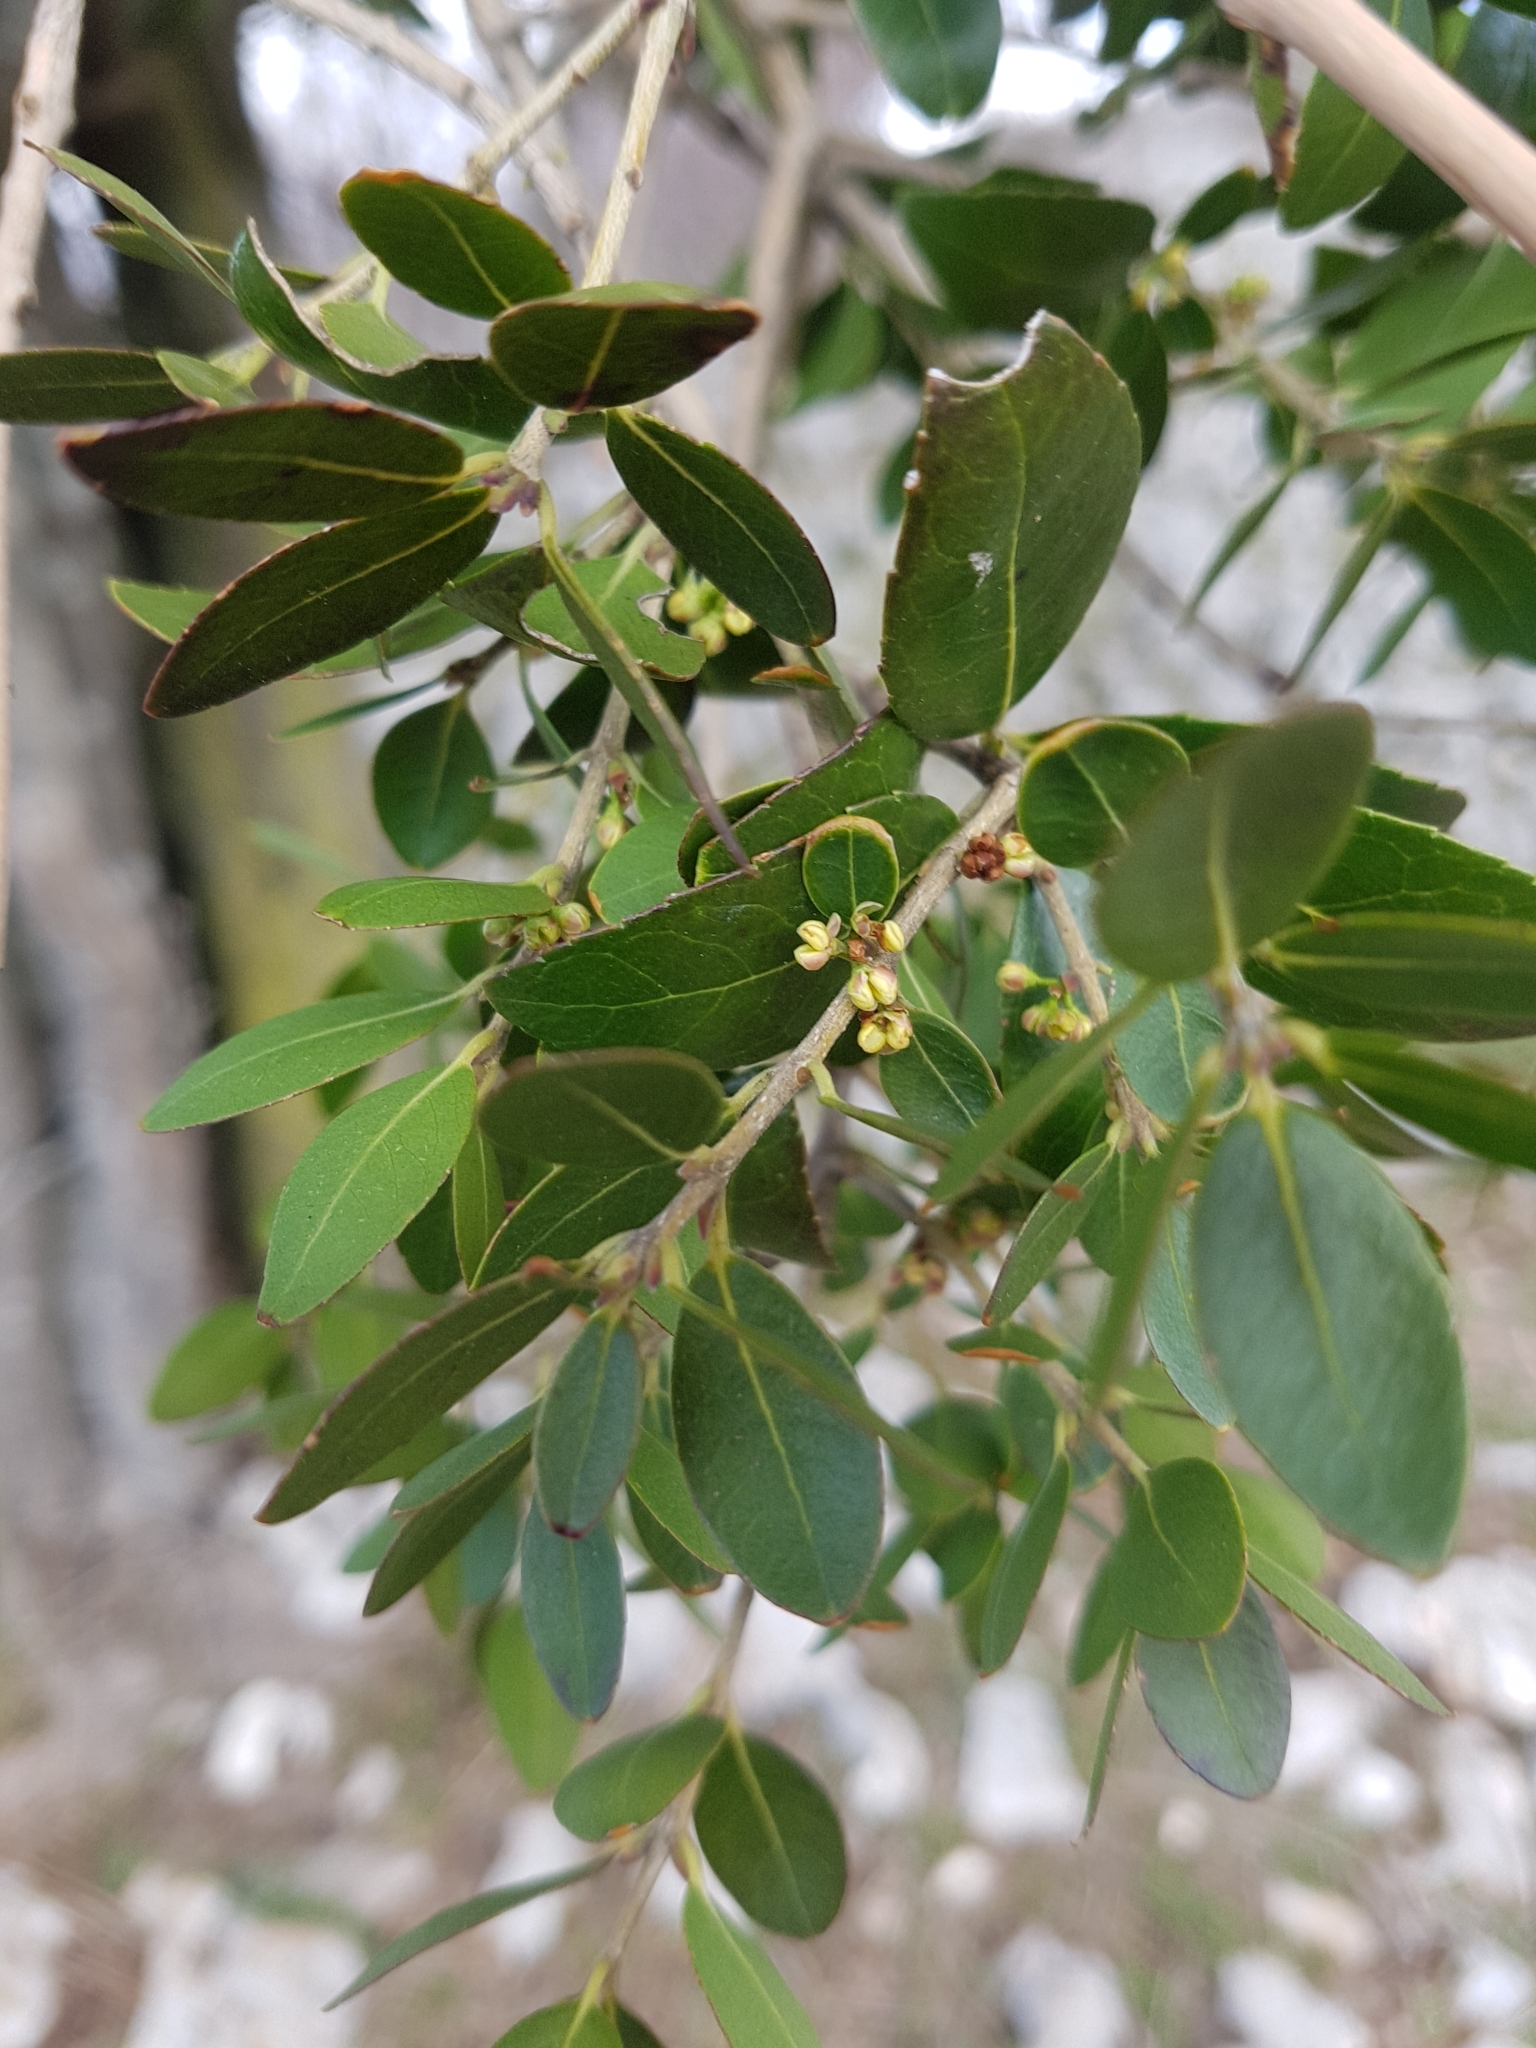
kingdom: Plantae
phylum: Tracheophyta
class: Magnoliopsida
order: Lamiales
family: Oleaceae
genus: Phillyrea
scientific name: Phillyrea latifolia
